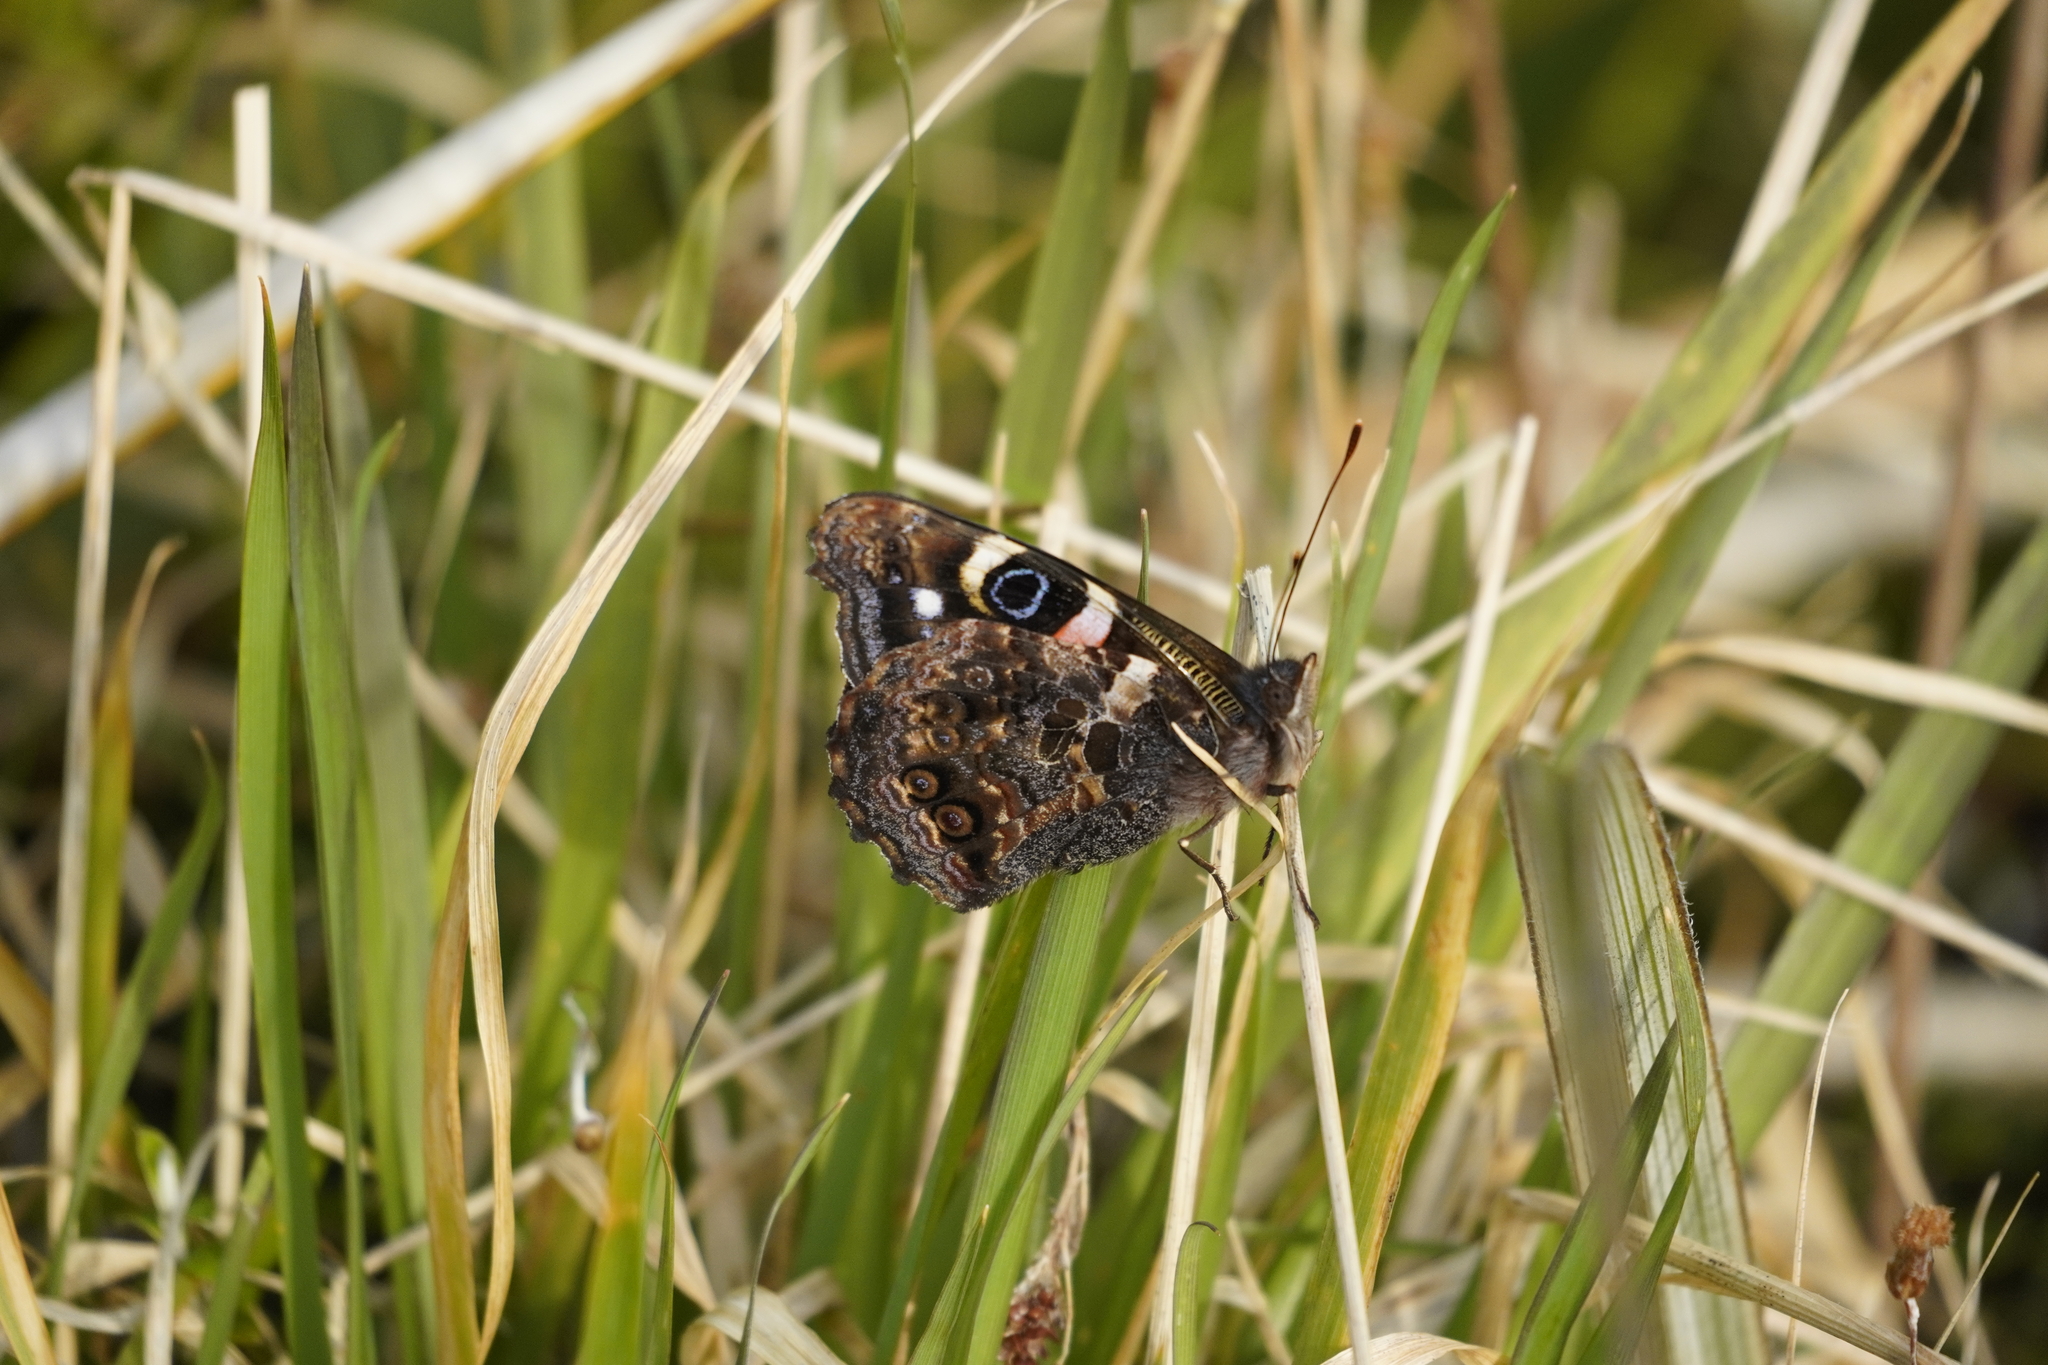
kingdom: Animalia
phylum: Arthropoda
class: Insecta
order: Lepidoptera
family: Nymphalidae
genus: Vanessa
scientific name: Vanessa gonerilla
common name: New zealand red admiral
